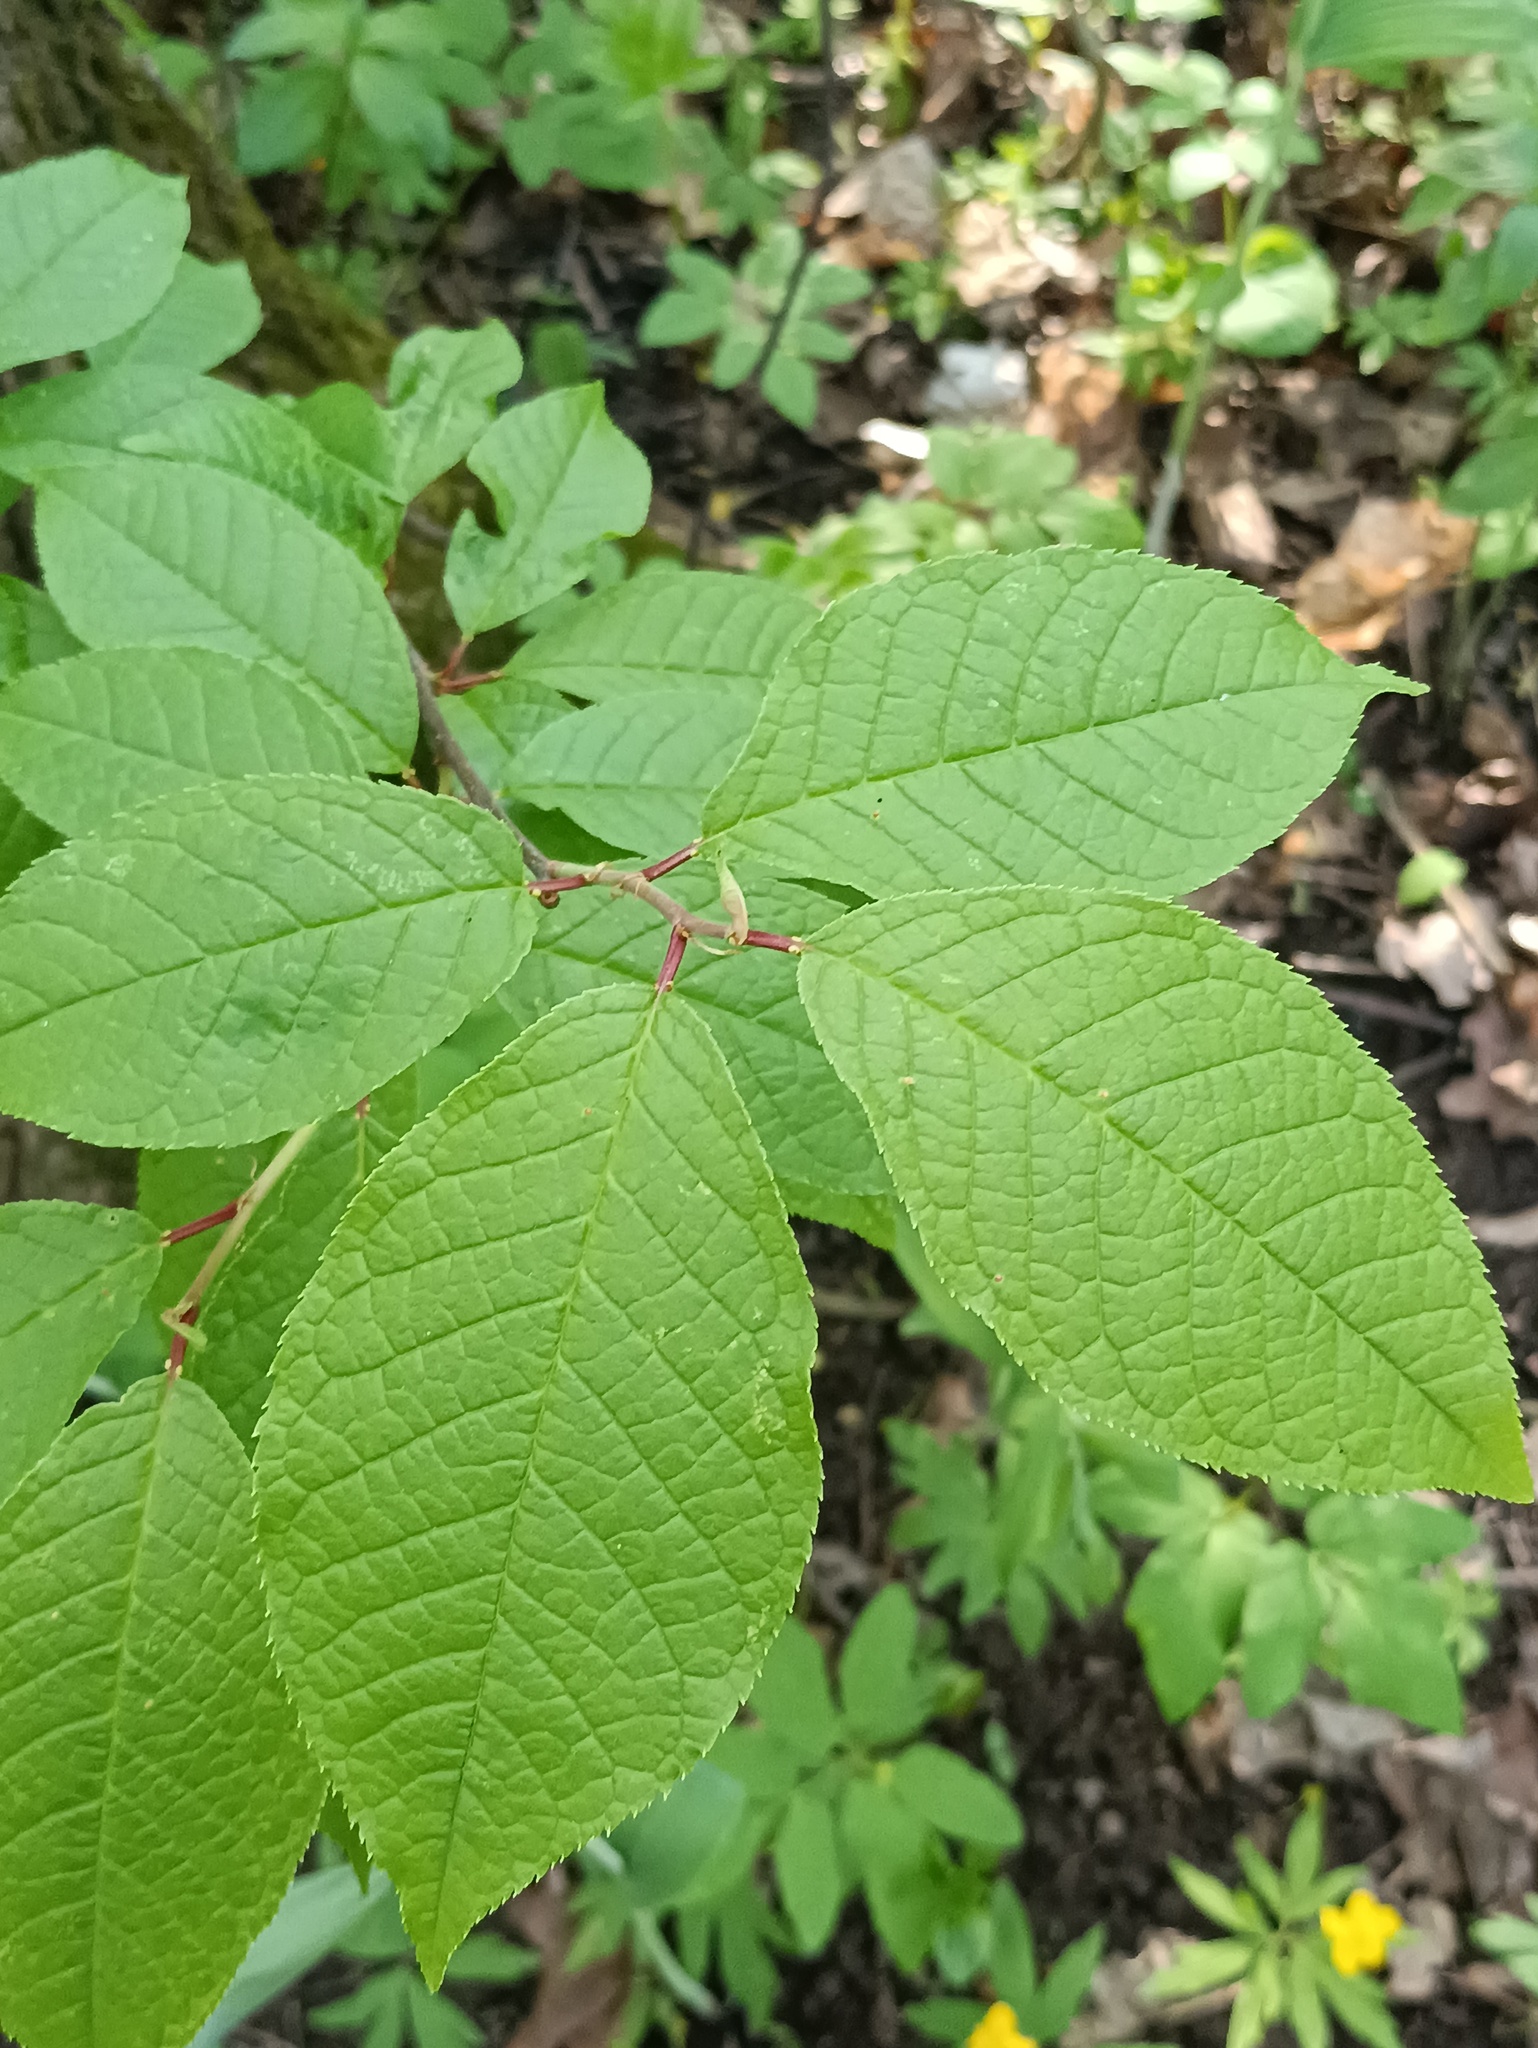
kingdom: Plantae
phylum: Tracheophyta
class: Magnoliopsida
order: Rosales
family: Rosaceae
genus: Prunus
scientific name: Prunus padus
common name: Bird cherry
